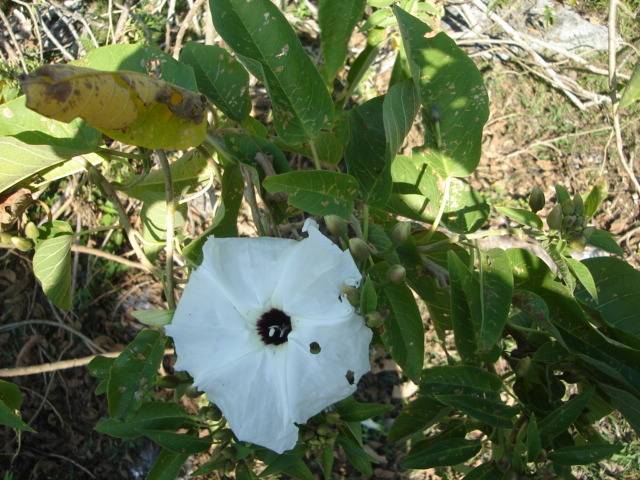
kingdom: Plantae
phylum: Tracheophyta
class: Magnoliopsida
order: Solanales
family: Convolvulaceae
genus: Ipomoea
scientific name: Ipomoea wolcottiana
